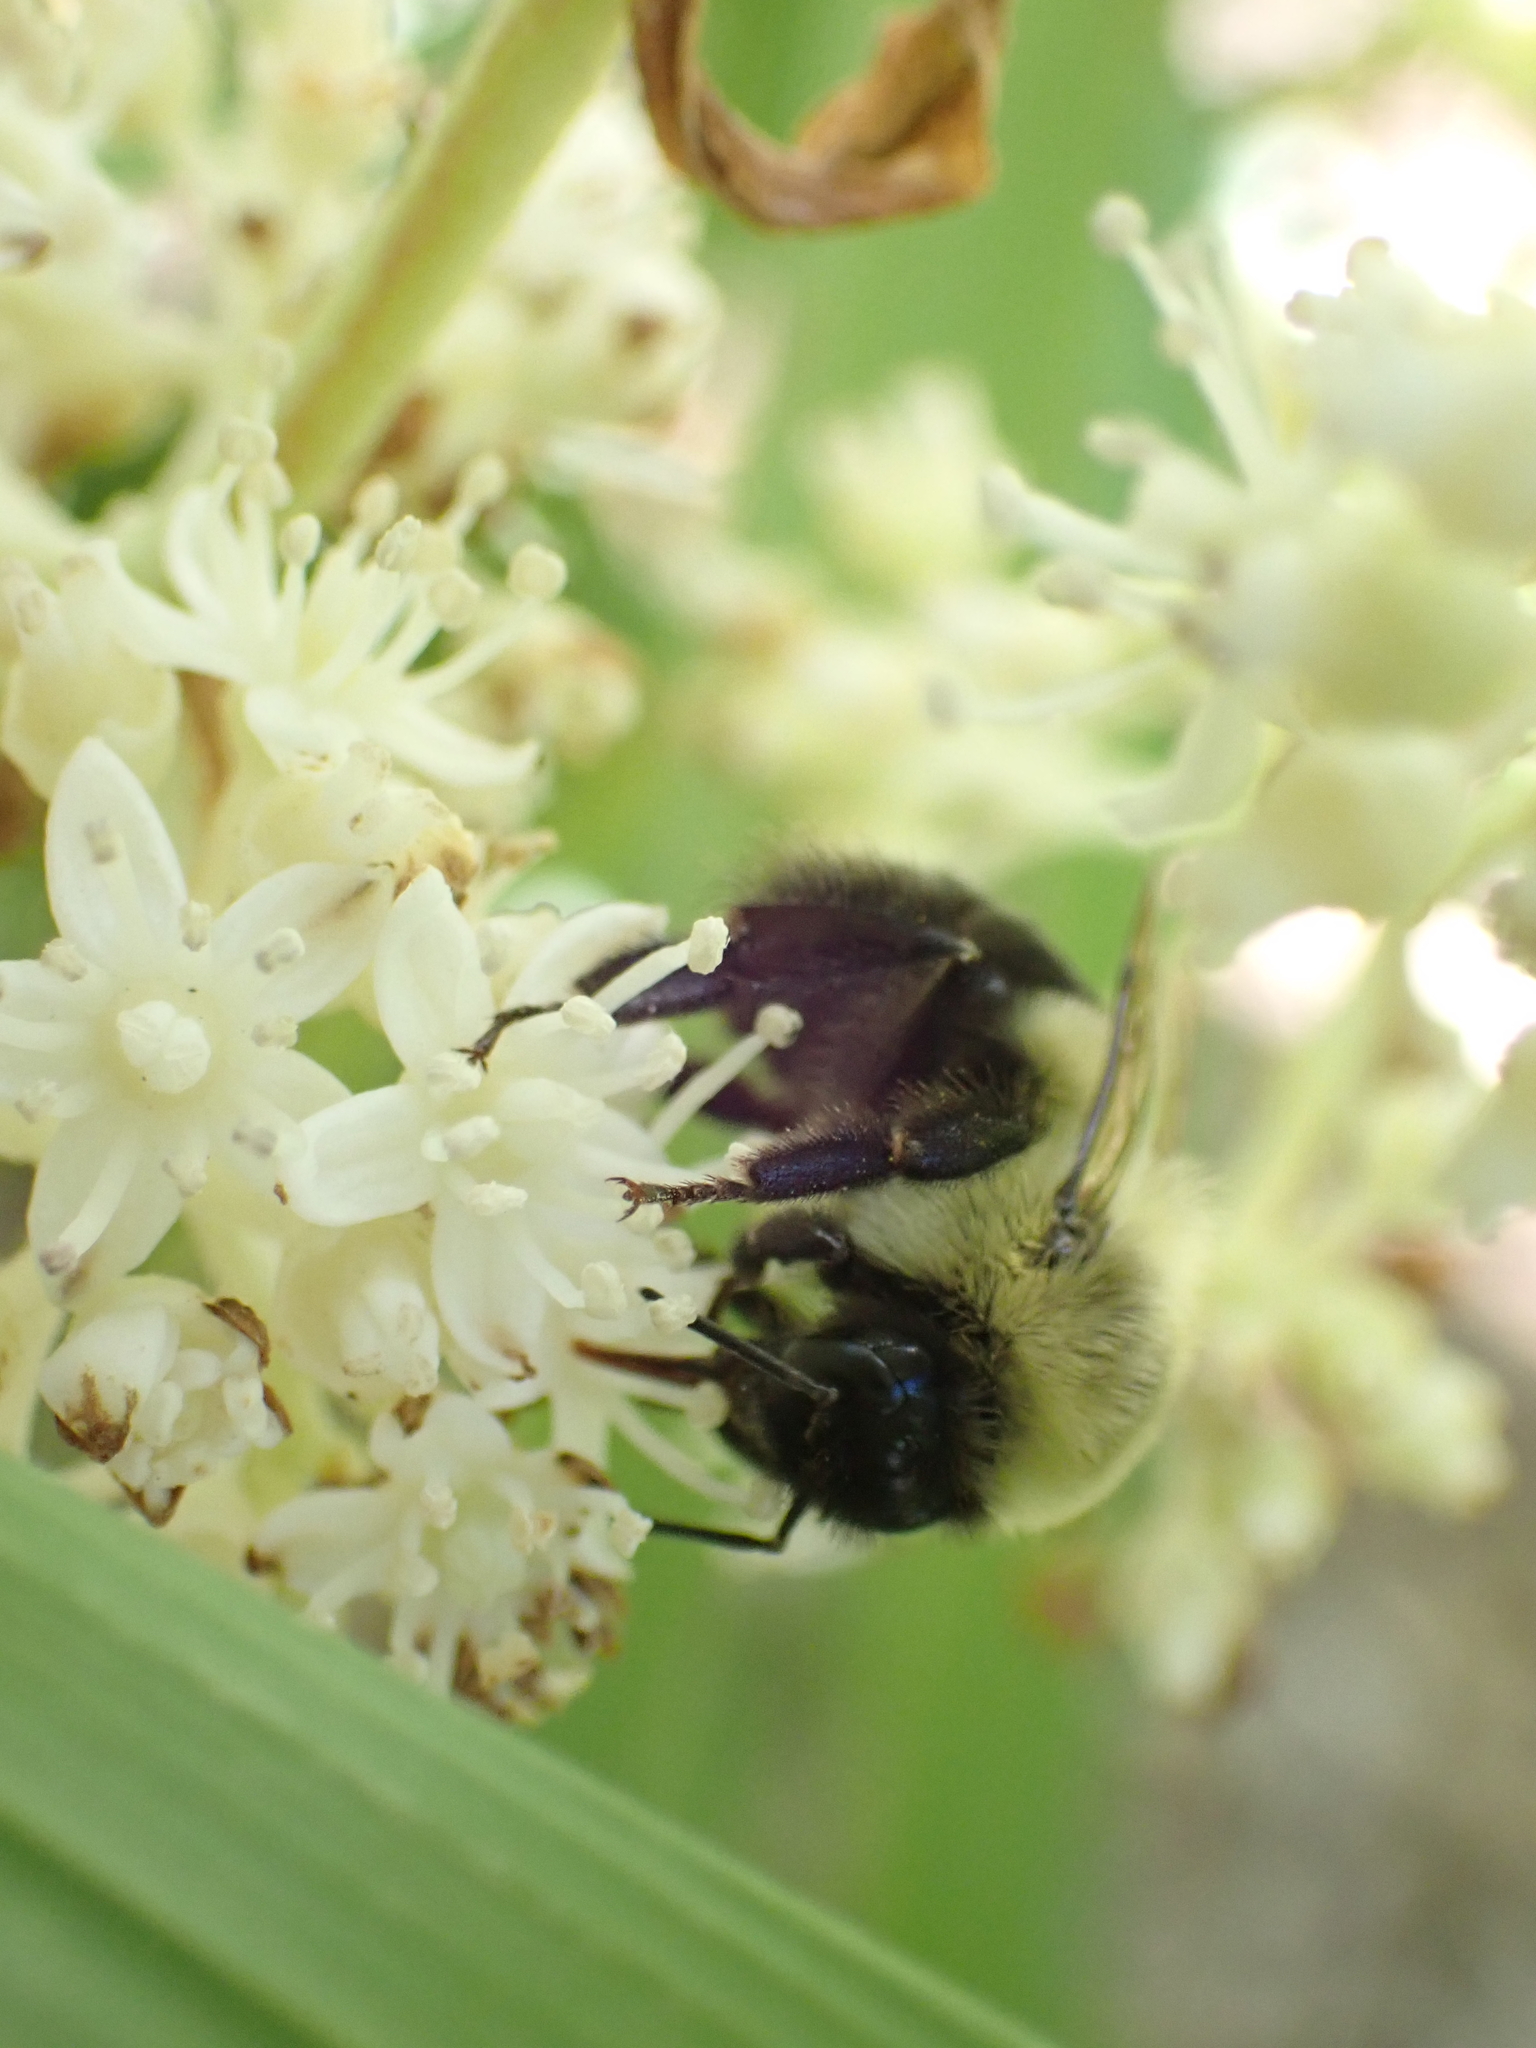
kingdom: Animalia
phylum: Arthropoda
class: Insecta
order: Hymenoptera
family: Apidae
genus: Bombus
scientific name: Bombus impatiens
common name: Common eastern bumble bee
